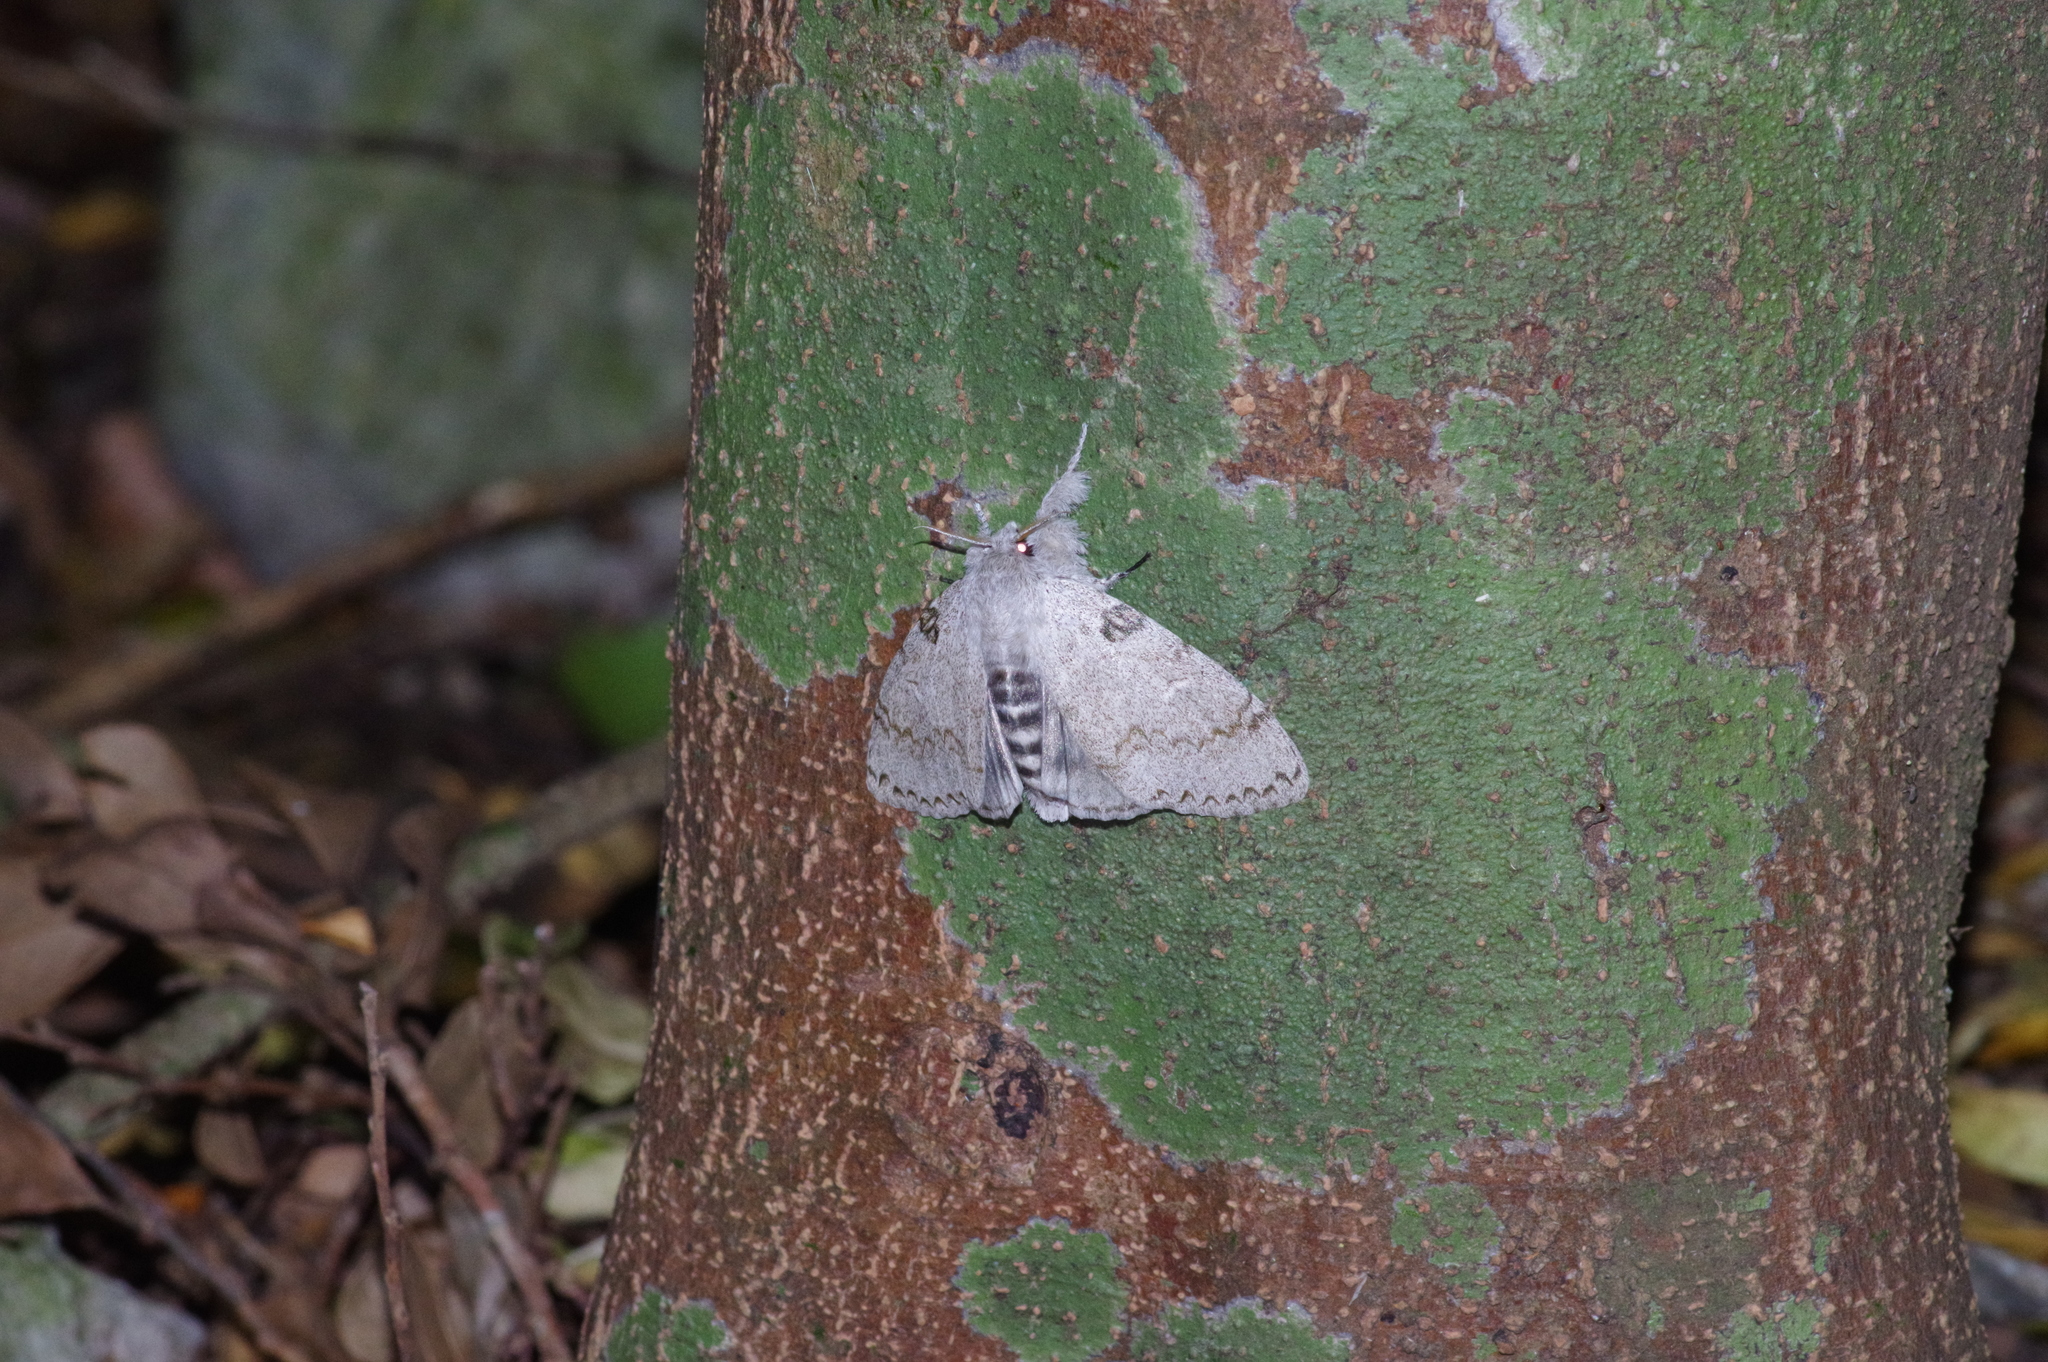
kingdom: Animalia
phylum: Arthropoda
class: Insecta
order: Lepidoptera
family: Erebidae
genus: Calliteara
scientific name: Calliteara lunulata
